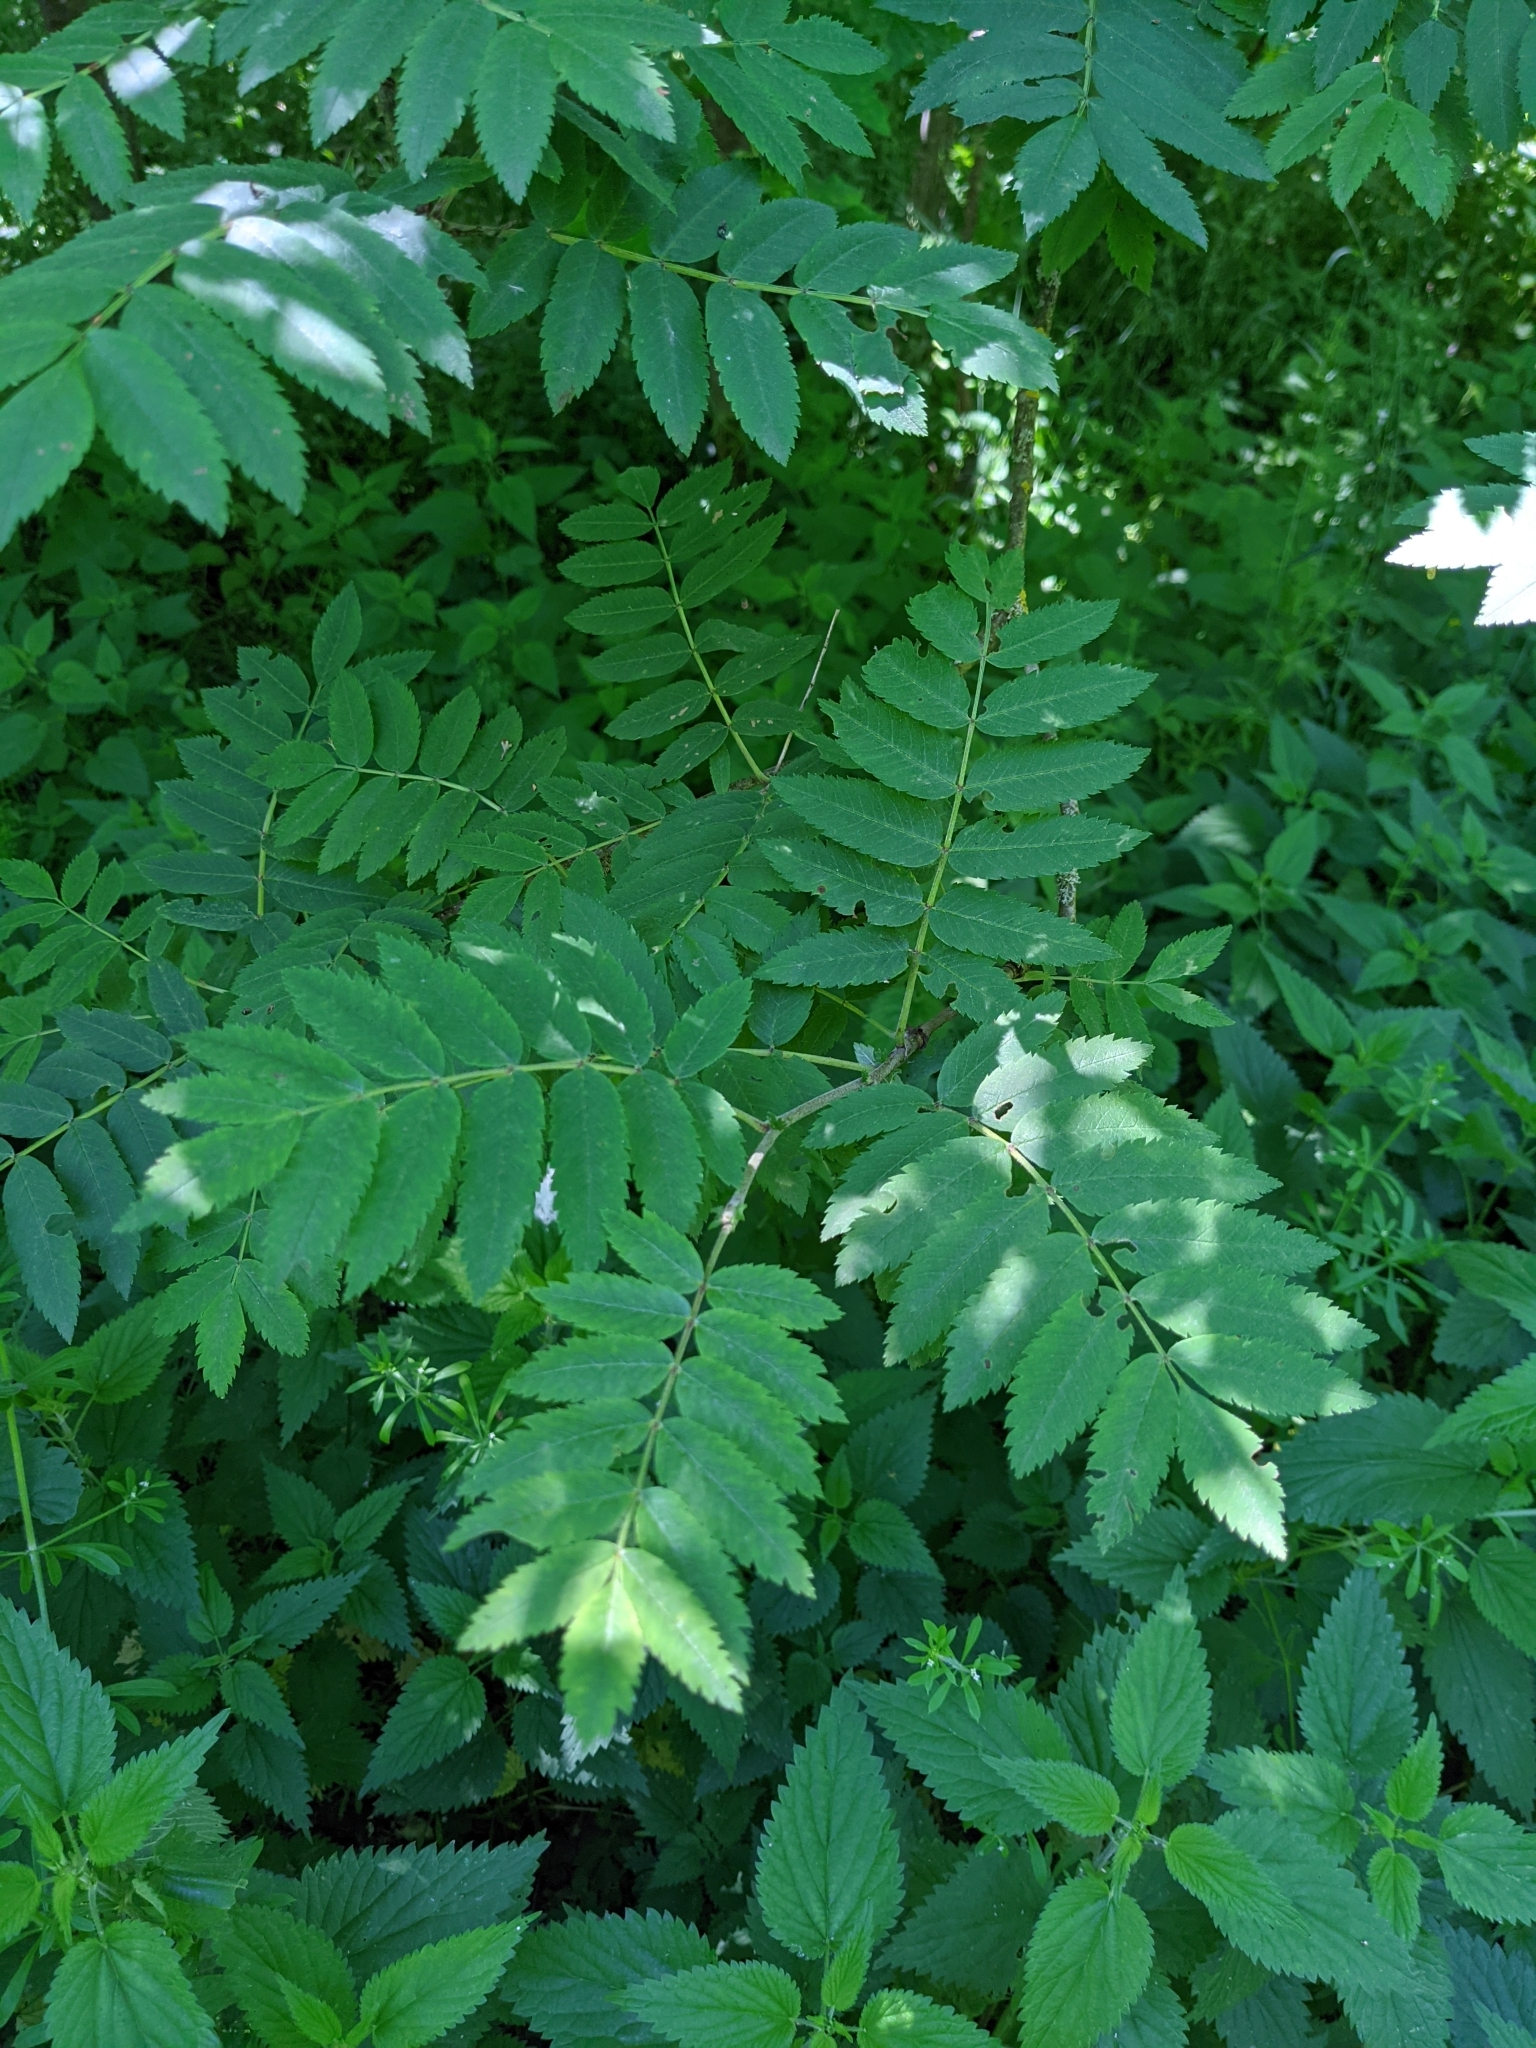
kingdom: Plantae
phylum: Tracheophyta
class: Magnoliopsida
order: Rosales
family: Rosaceae
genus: Sorbus
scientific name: Sorbus aucuparia
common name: Rowan
